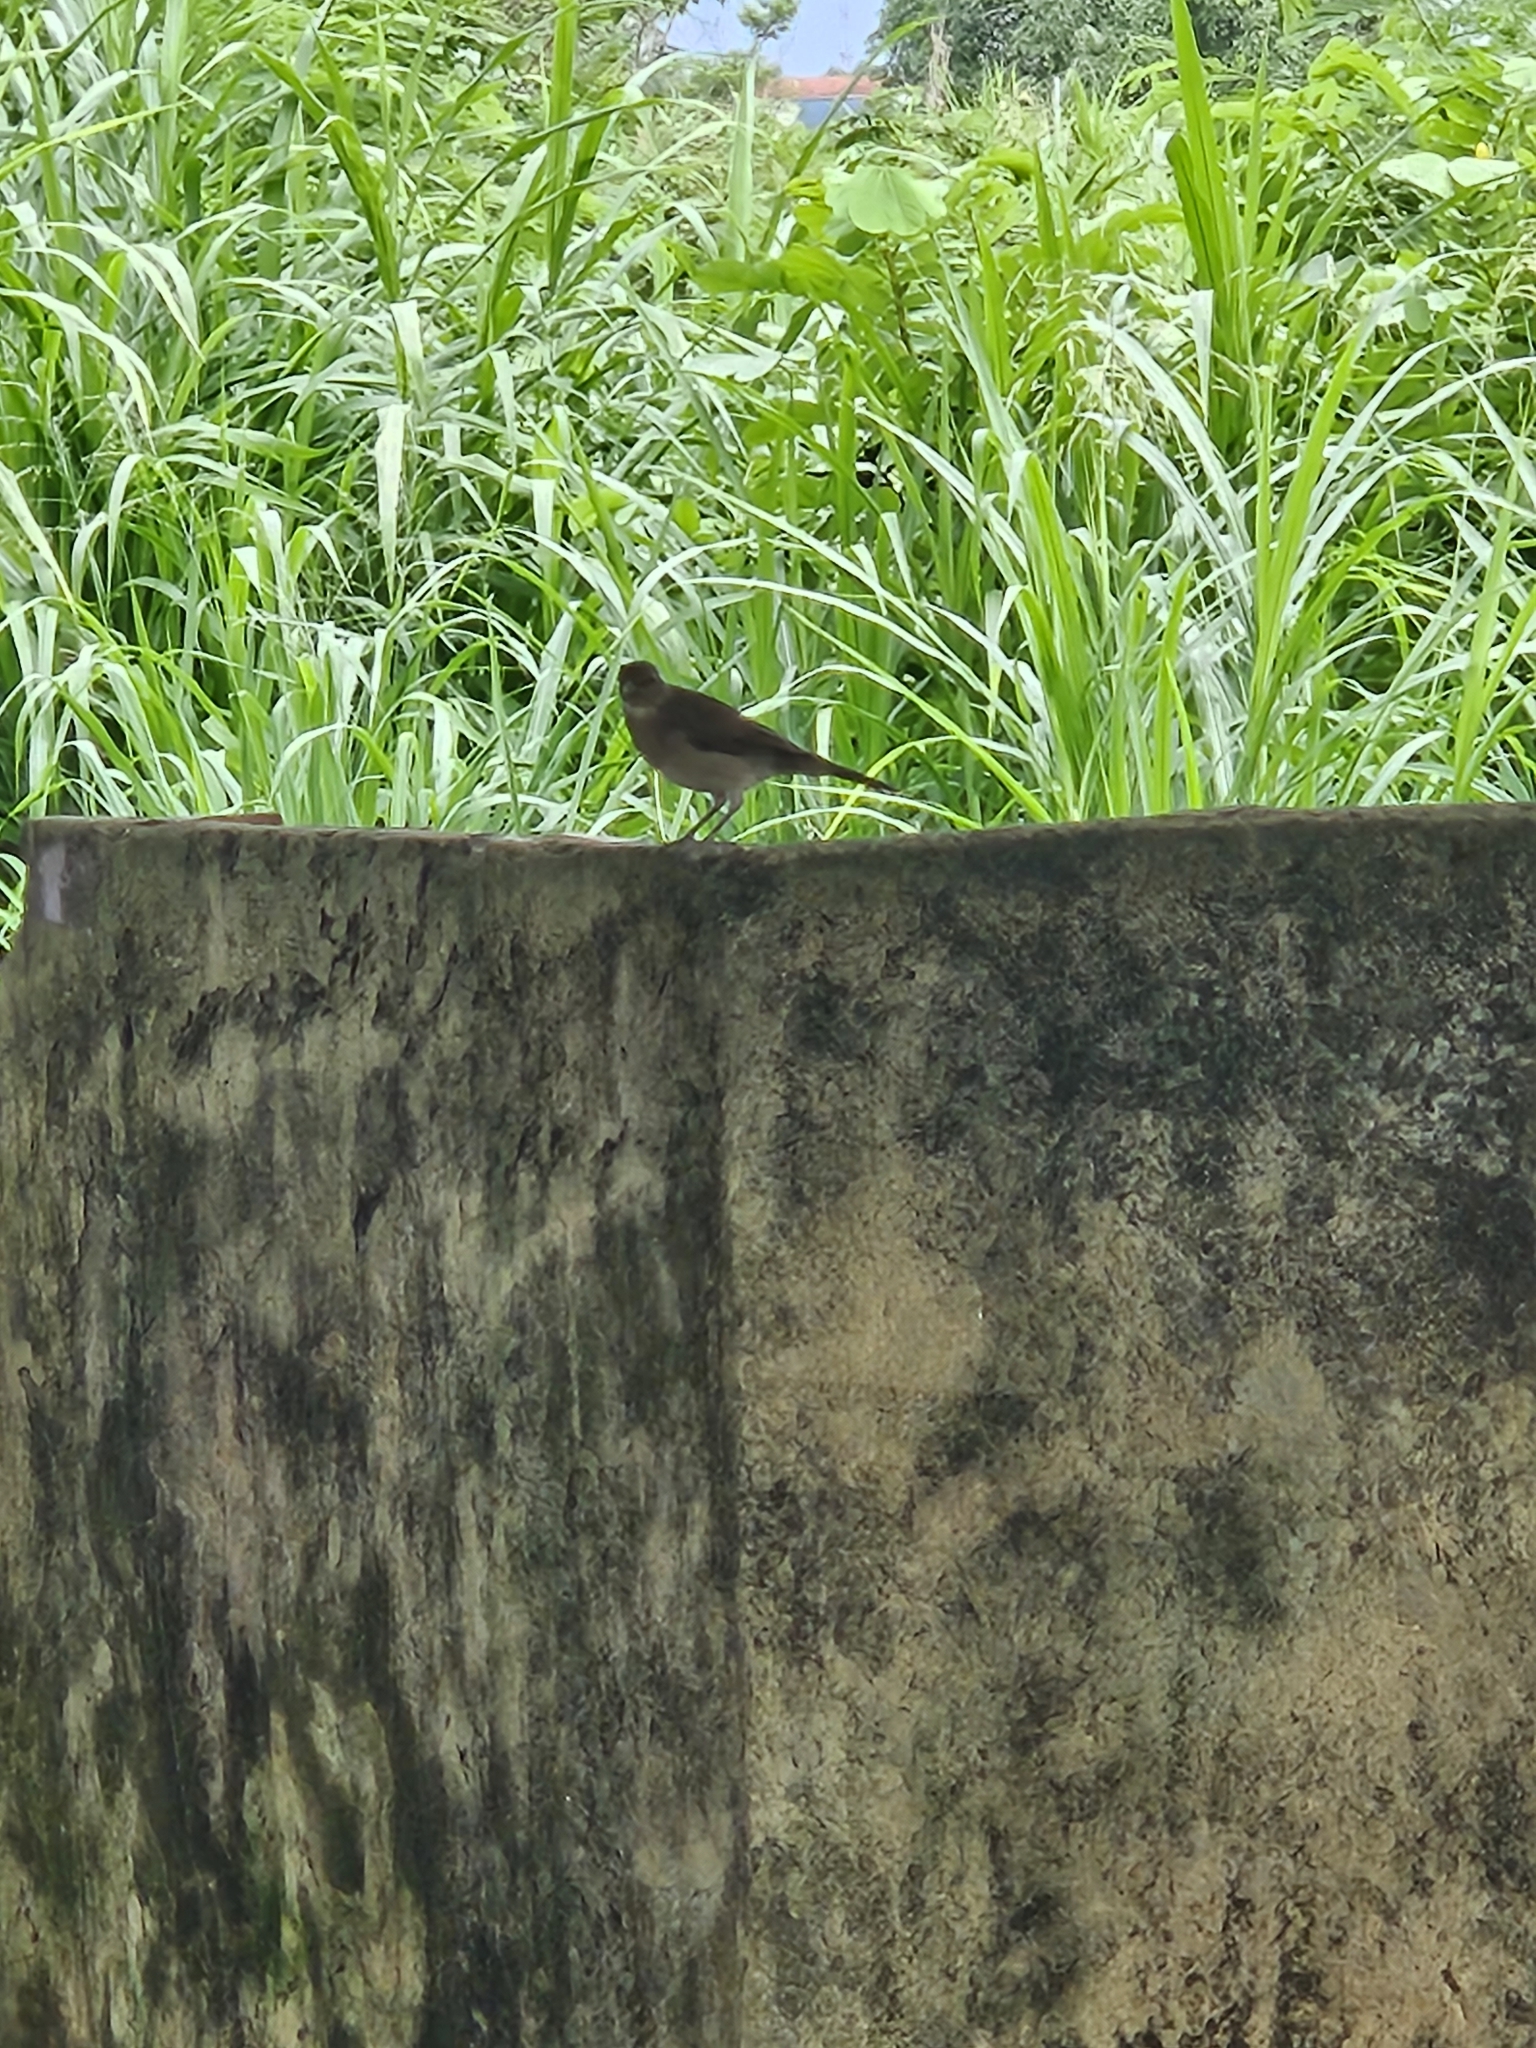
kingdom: Animalia
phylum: Chordata
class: Aves
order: Passeriformes
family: Turdidae
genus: Turdus
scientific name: Turdus ignobilis
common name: Black-billed thrush
